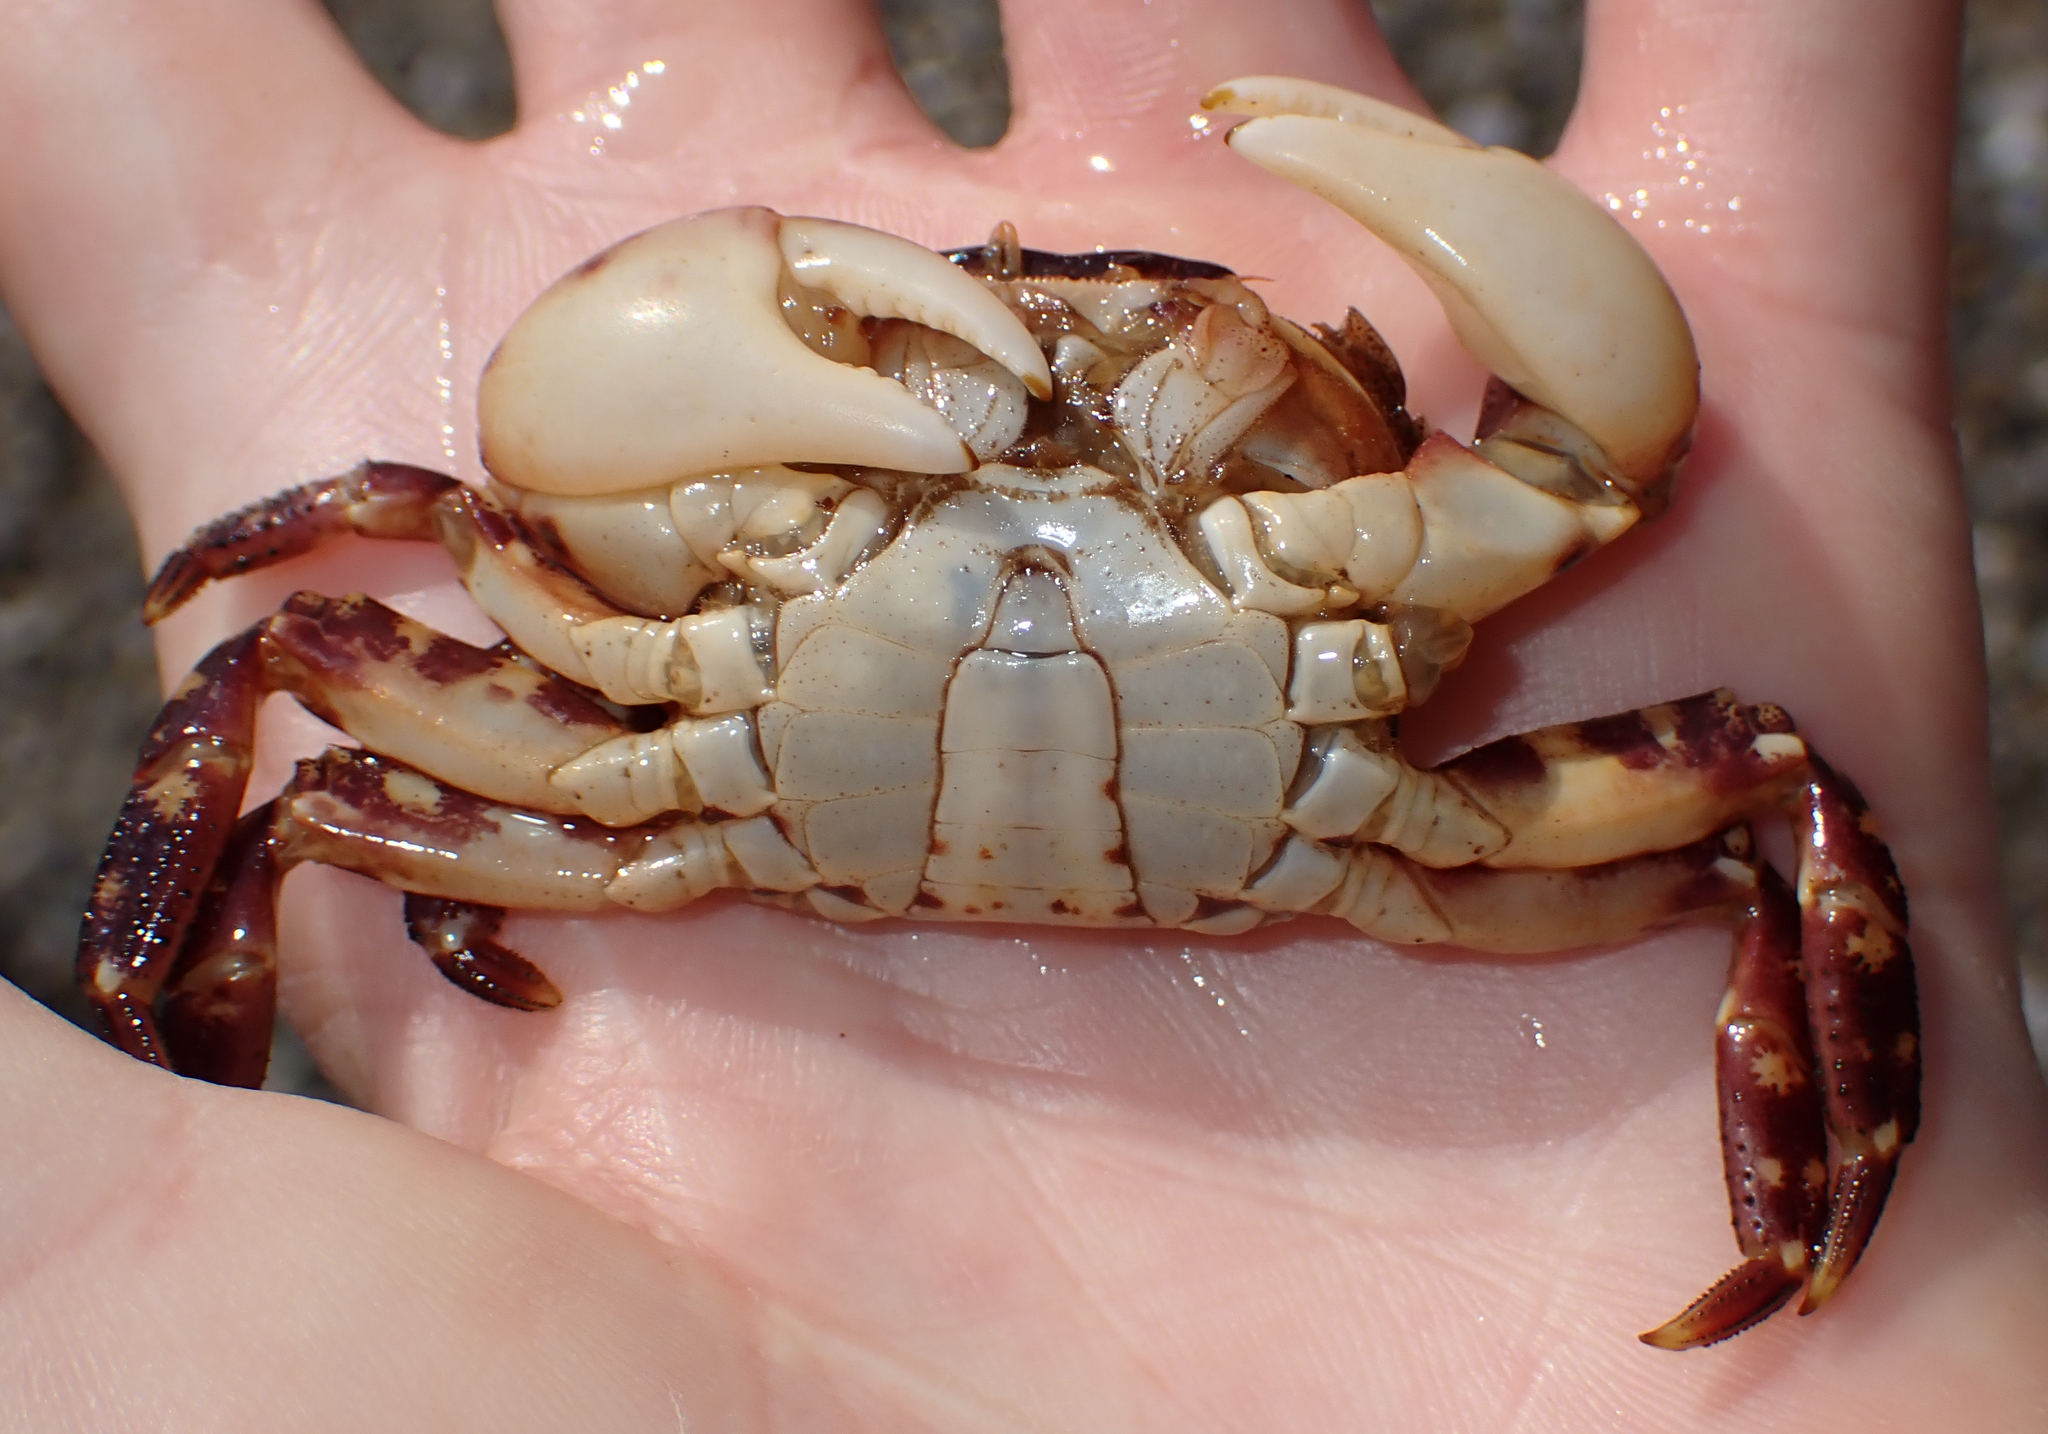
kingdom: Animalia
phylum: Arthropoda
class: Malacostraca
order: Decapoda
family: Varunidae
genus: Hemigrapsus
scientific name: Hemigrapsus sanguineus
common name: Asian shore crab
